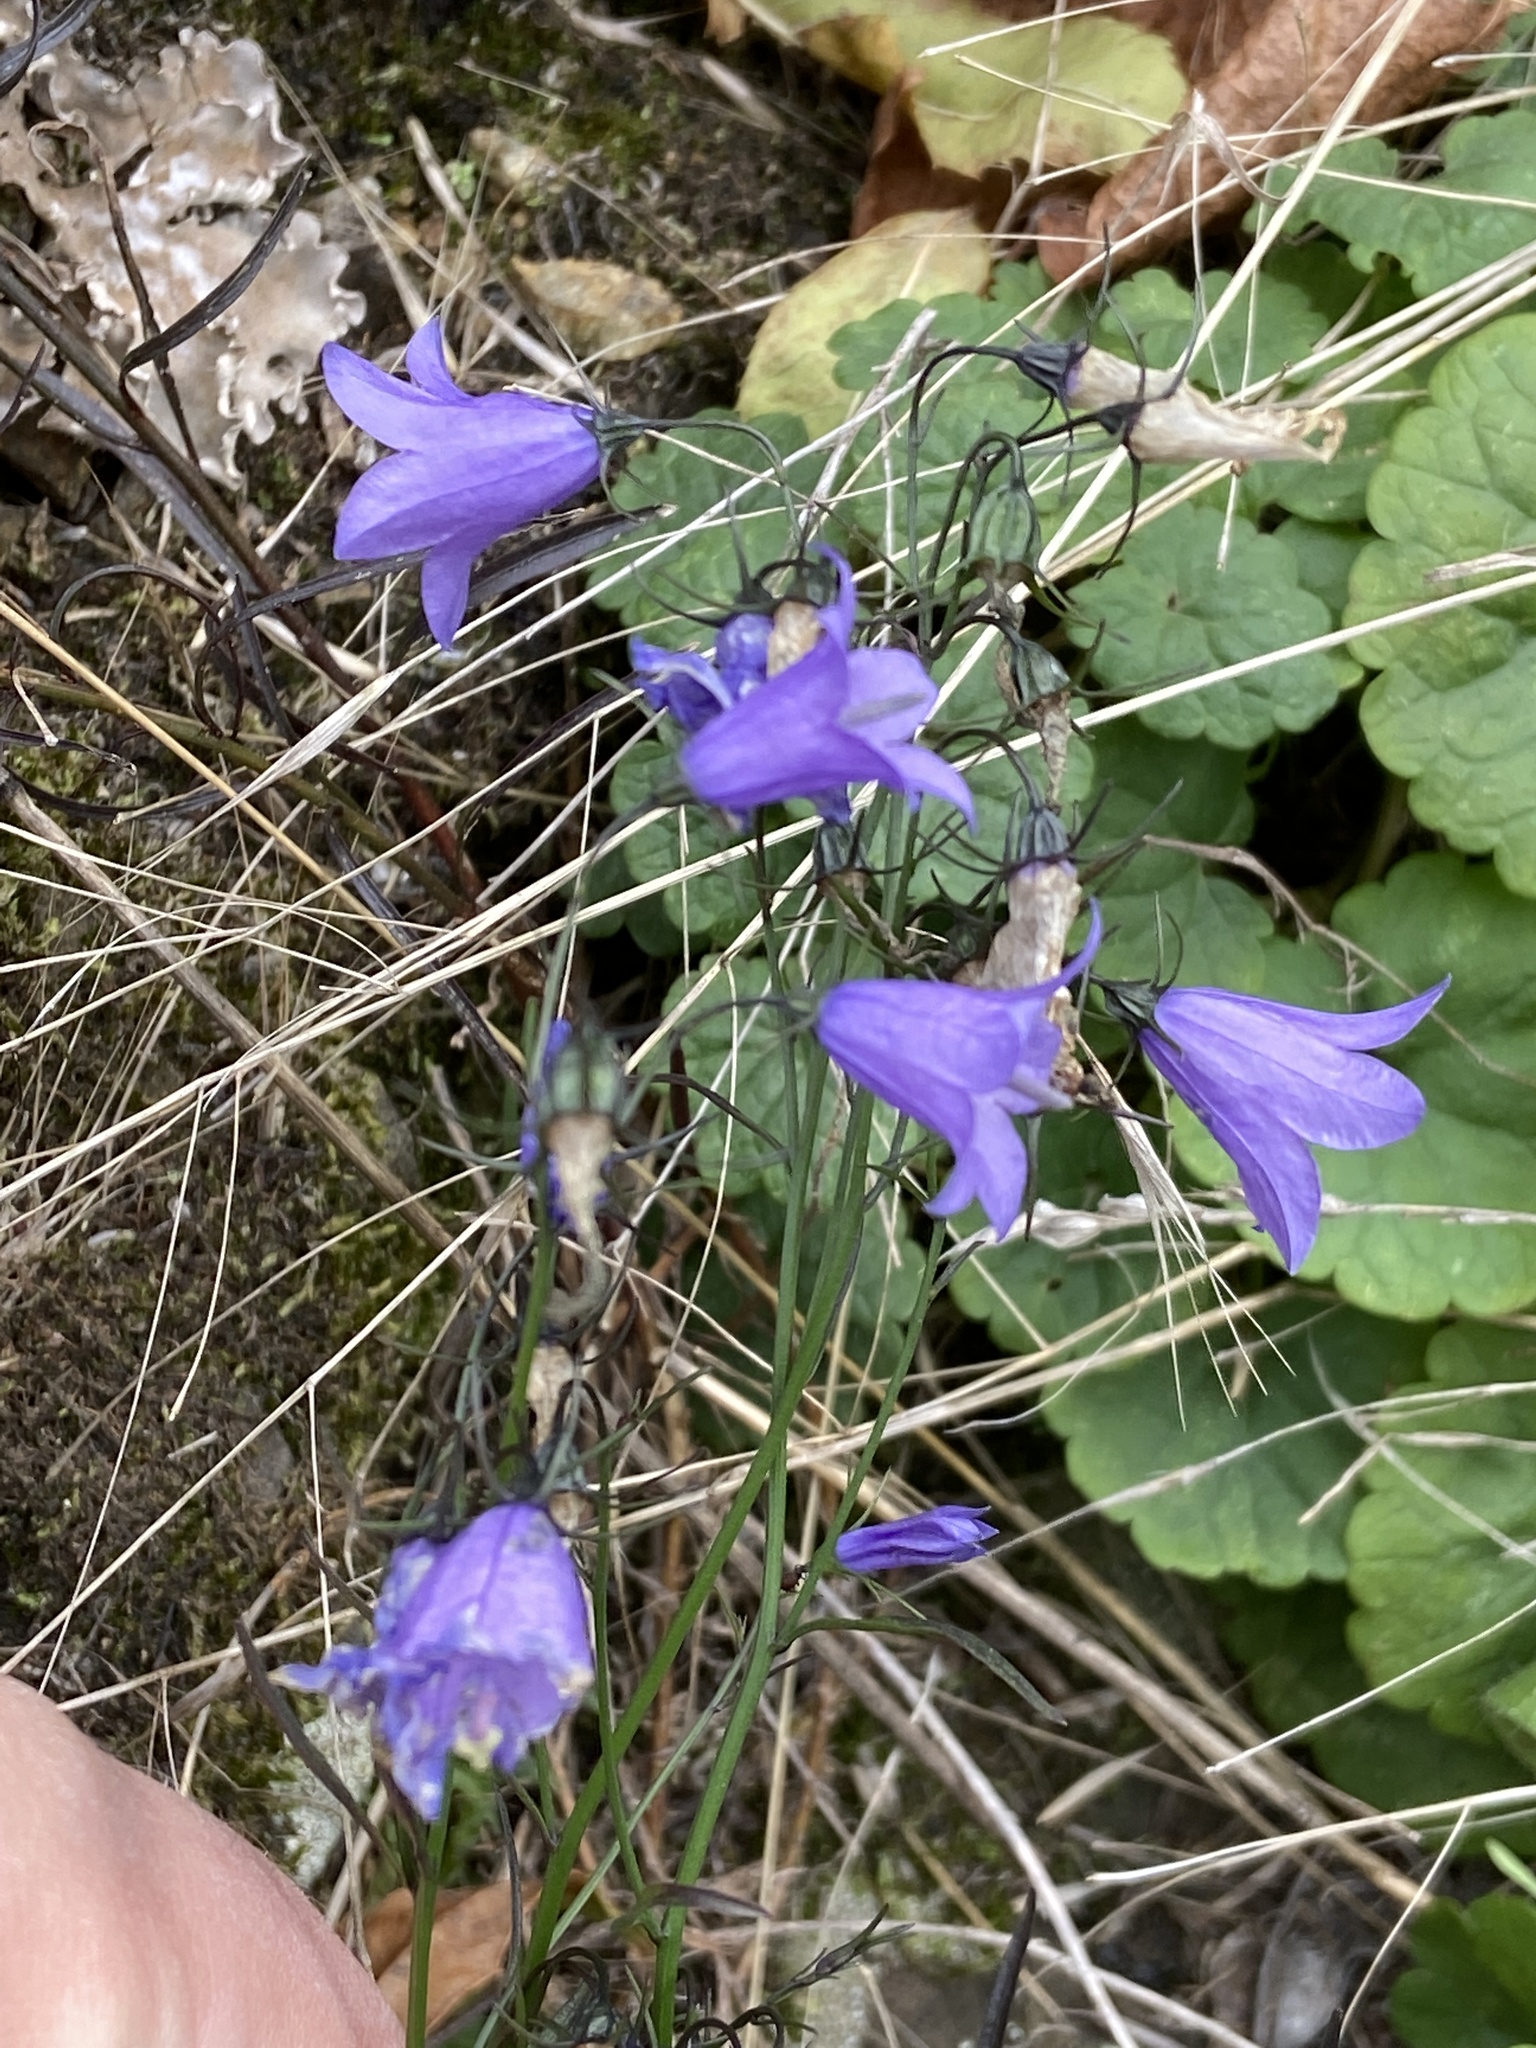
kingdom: Plantae
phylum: Tracheophyta
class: Magnoliopsida
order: Asterales
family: Campanulaceae
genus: Campanula
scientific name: Campanula rotundifolia
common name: Harebell
